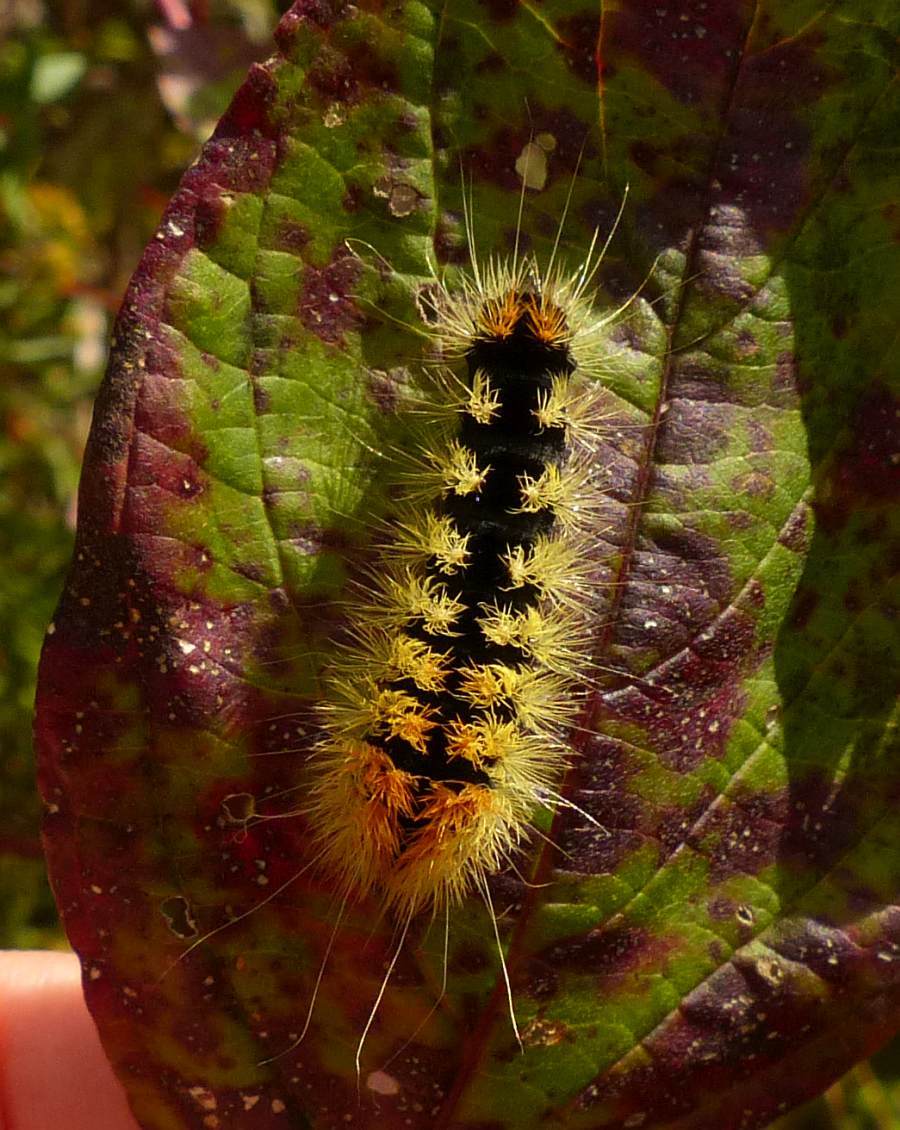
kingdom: Animalia
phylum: Arthropoda
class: Insecta
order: Lepidoptera
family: Noctuidae
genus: Acronicta
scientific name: Acronicta impressa
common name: Impressed dagger
